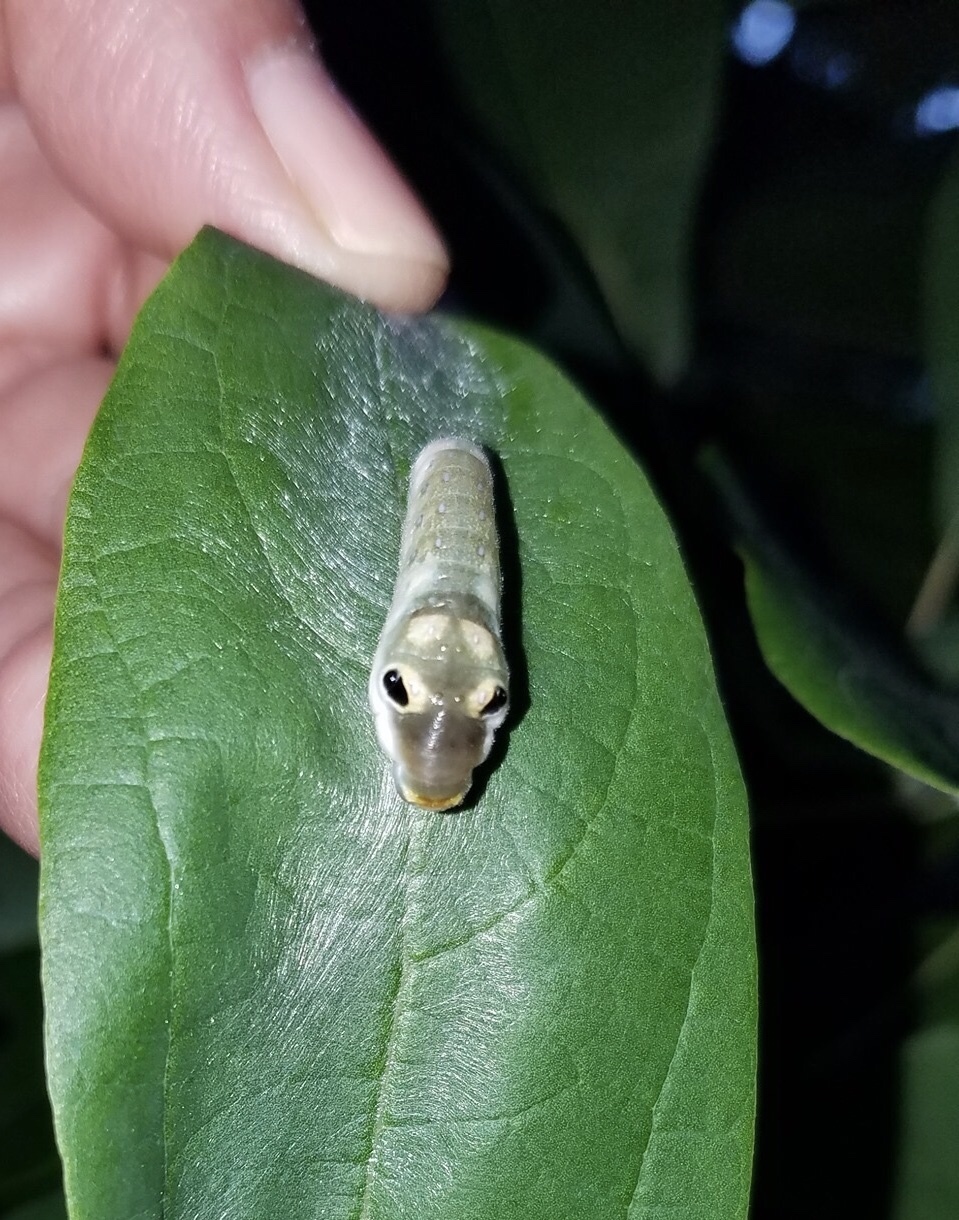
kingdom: Animalia
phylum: Arthropoda
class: Insecta
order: Lepidoptera
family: Papilionidae
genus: Papilio
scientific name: Papilio troilus
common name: Spicebush swallowtail
